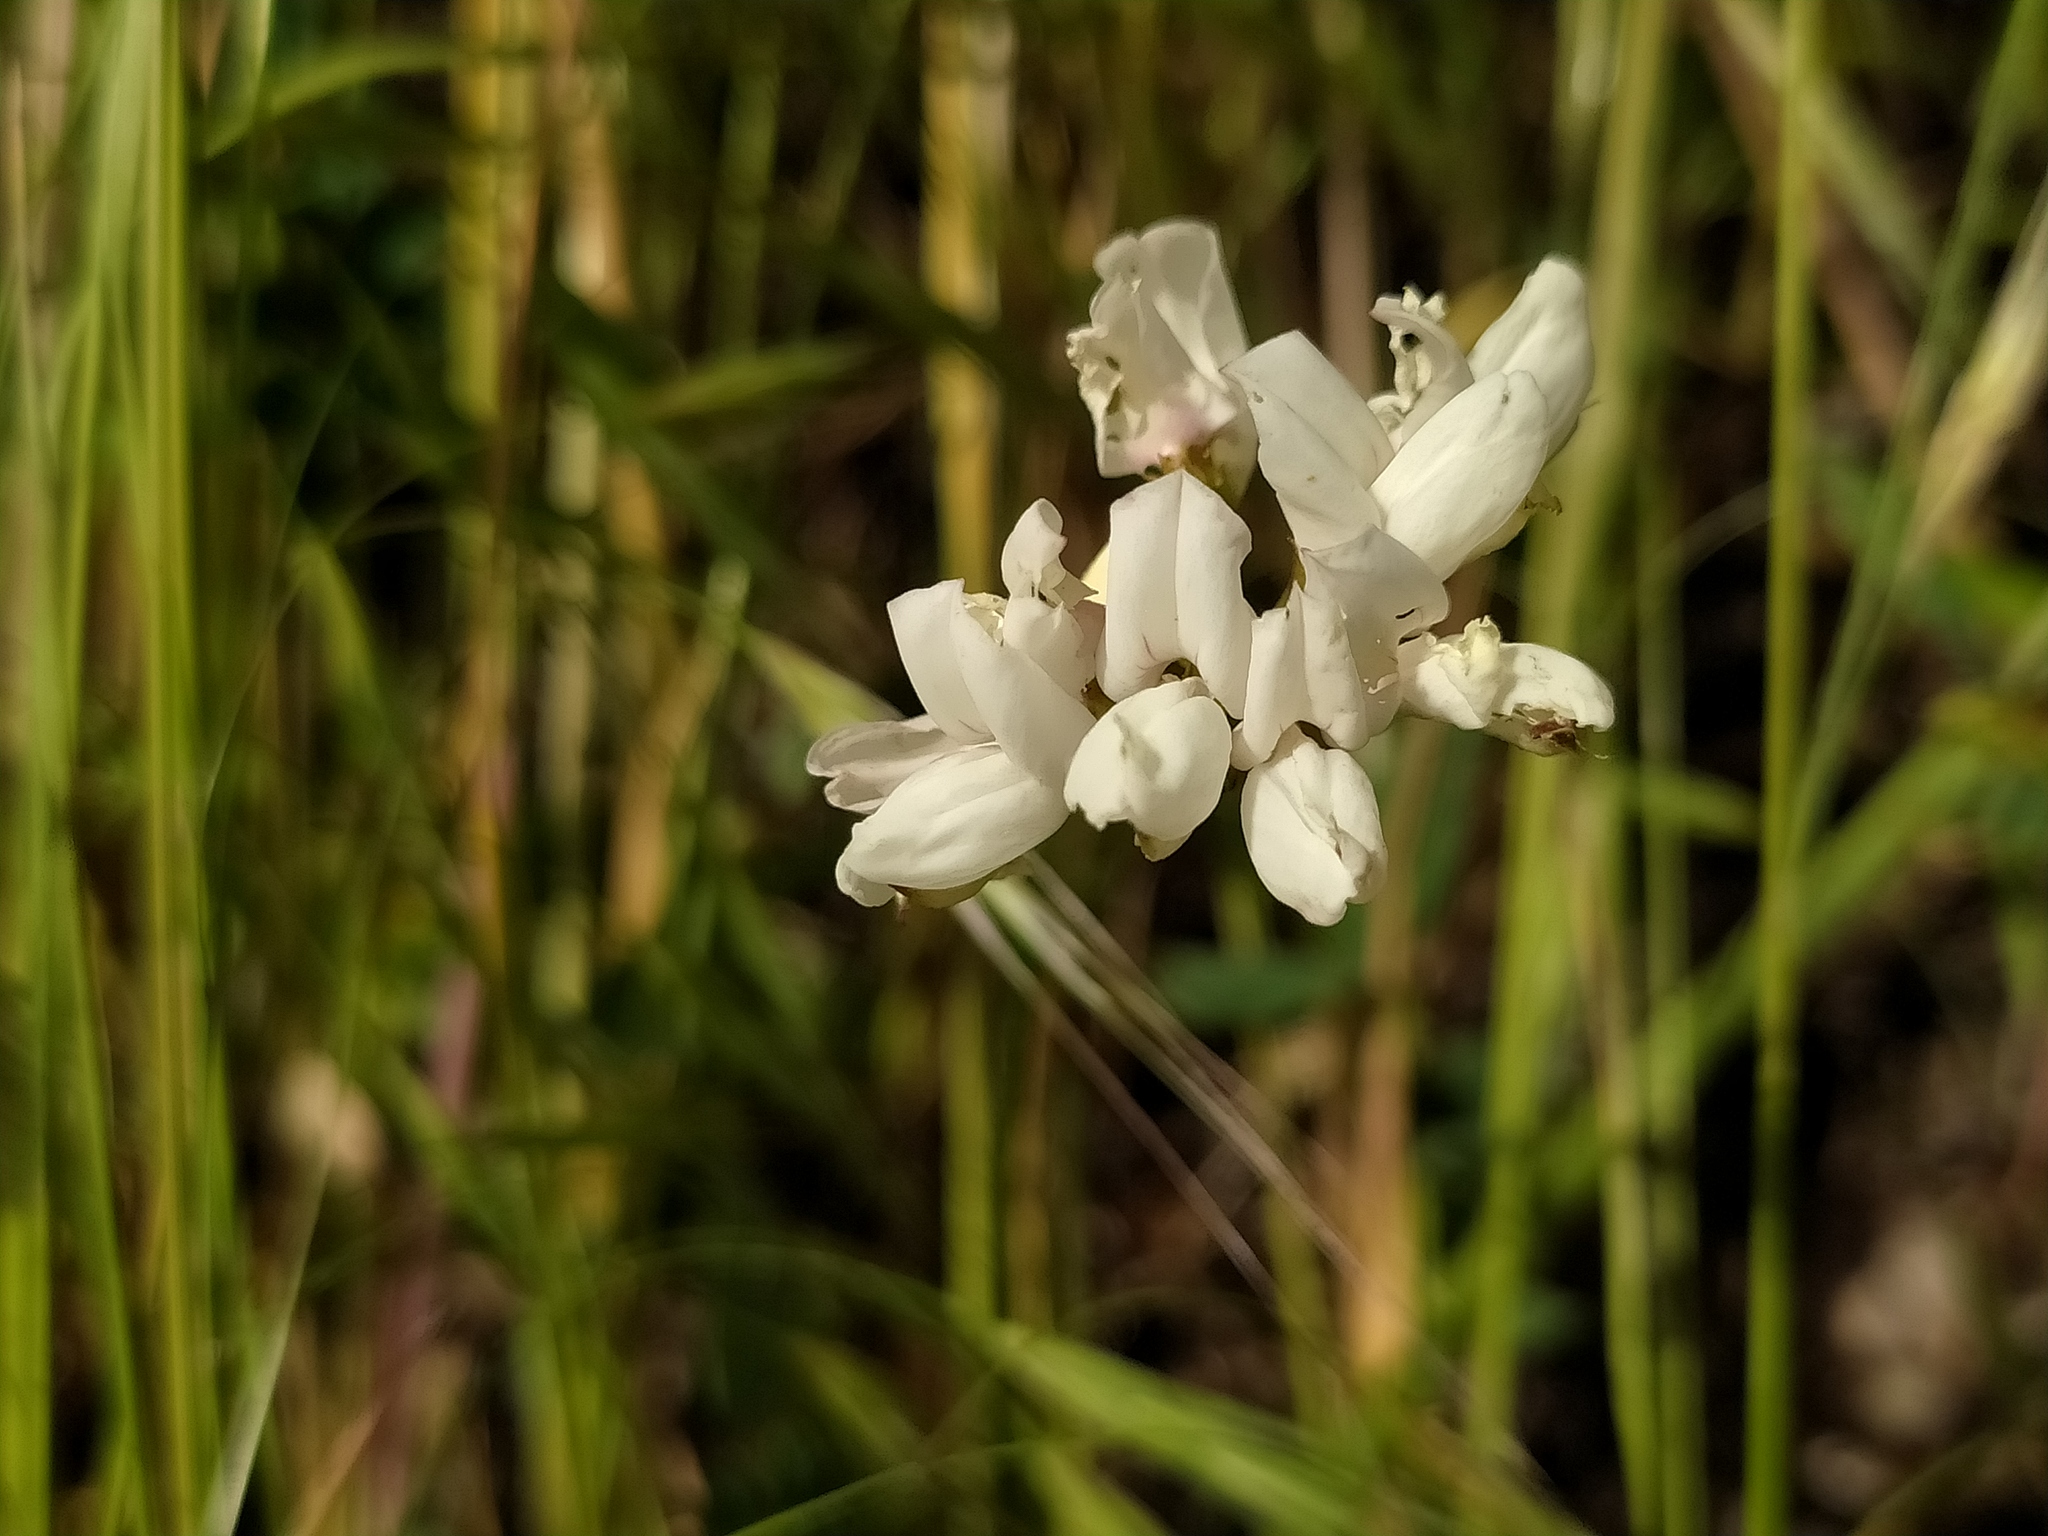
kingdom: Plantae
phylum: Tracheophyta
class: Magnoliopsida
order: Fabales
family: Fabaceae
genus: Coronilla
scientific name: Coronilla varia
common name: Crownvetch
